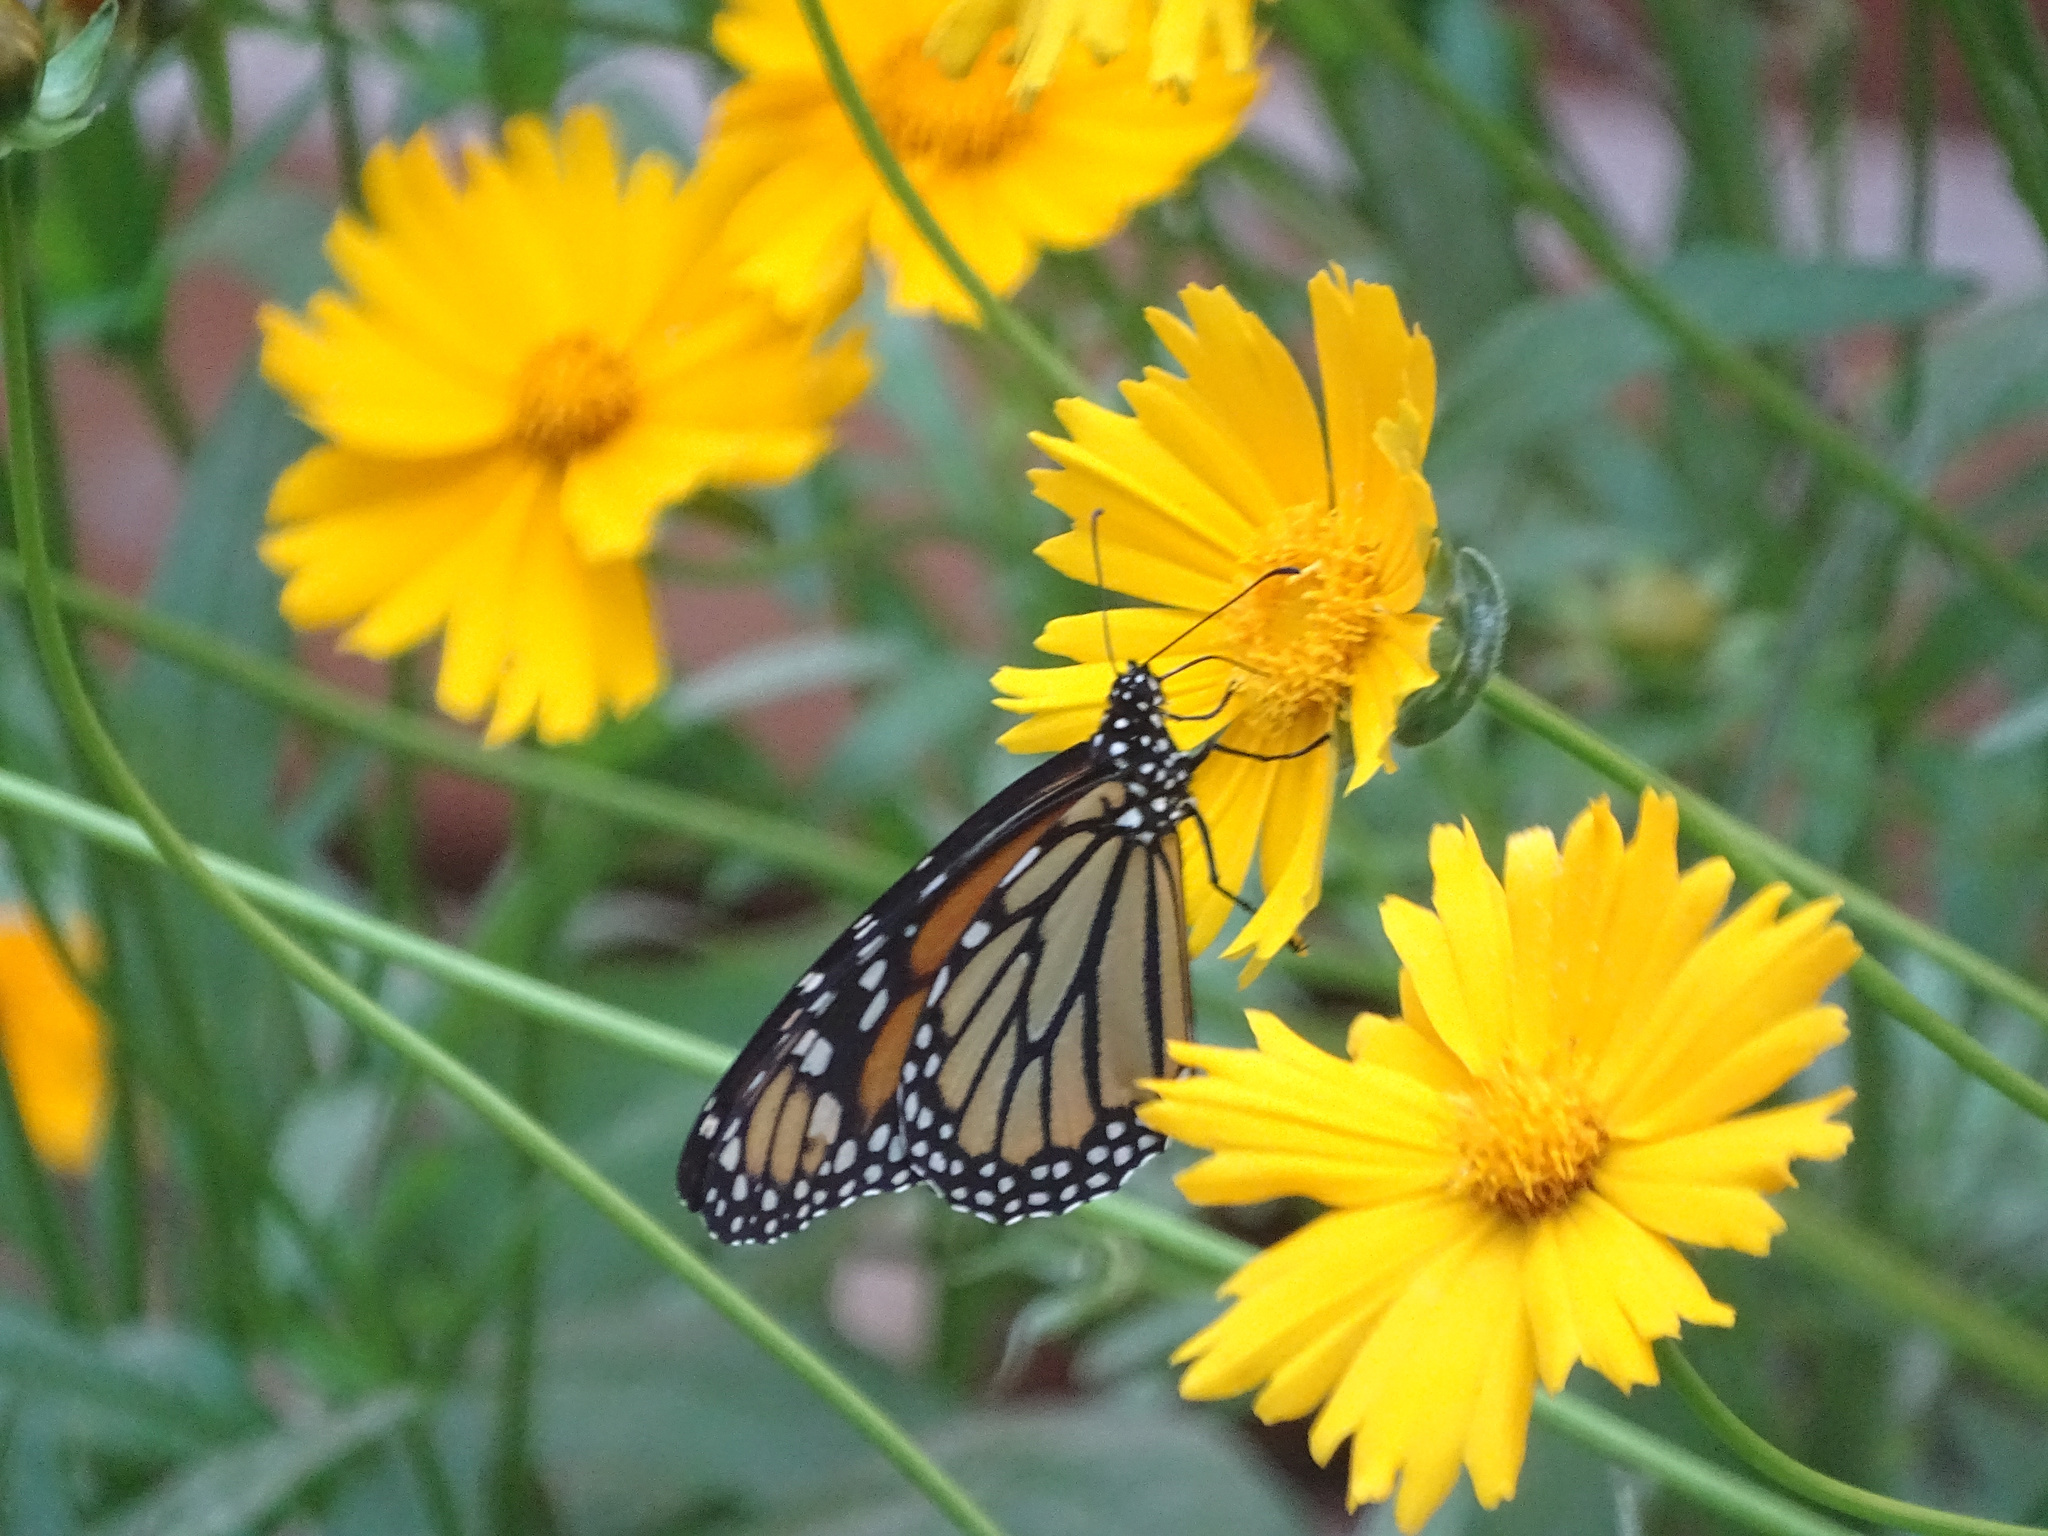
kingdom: Animalia
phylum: Arthropoda
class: Insecta
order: Lepidoptera
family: Nymphalidae
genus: Danaus
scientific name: Danaus plexippus
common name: Monarch
